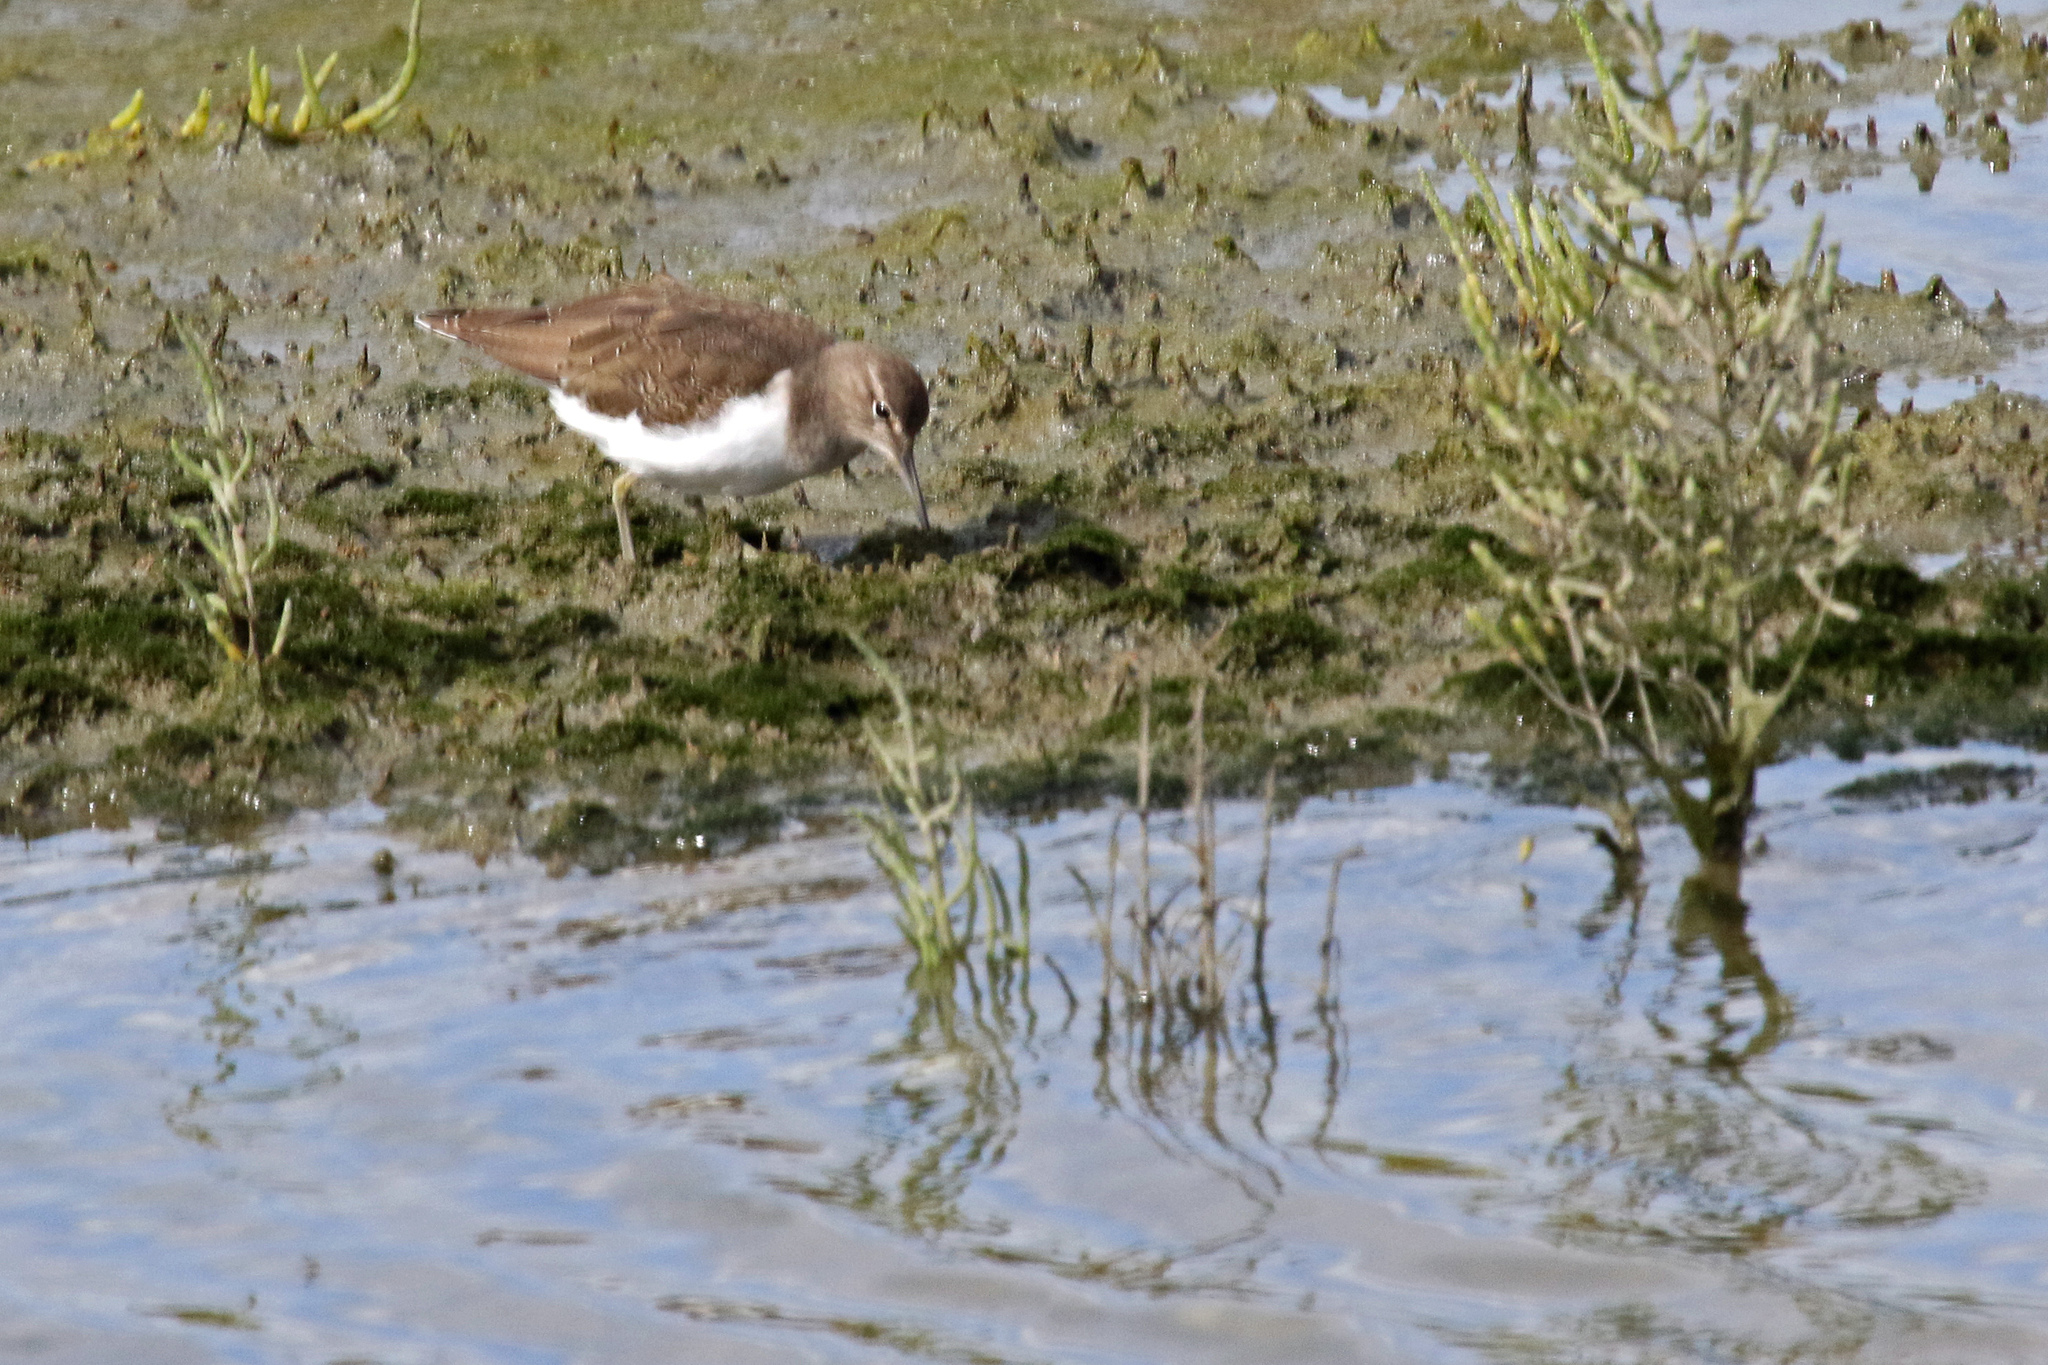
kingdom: Animalia
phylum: Chordata
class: Aves
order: Charadriiformes
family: Scolopacidae
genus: Actitis
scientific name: Actitis hypoleucos
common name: Common sandpiper
